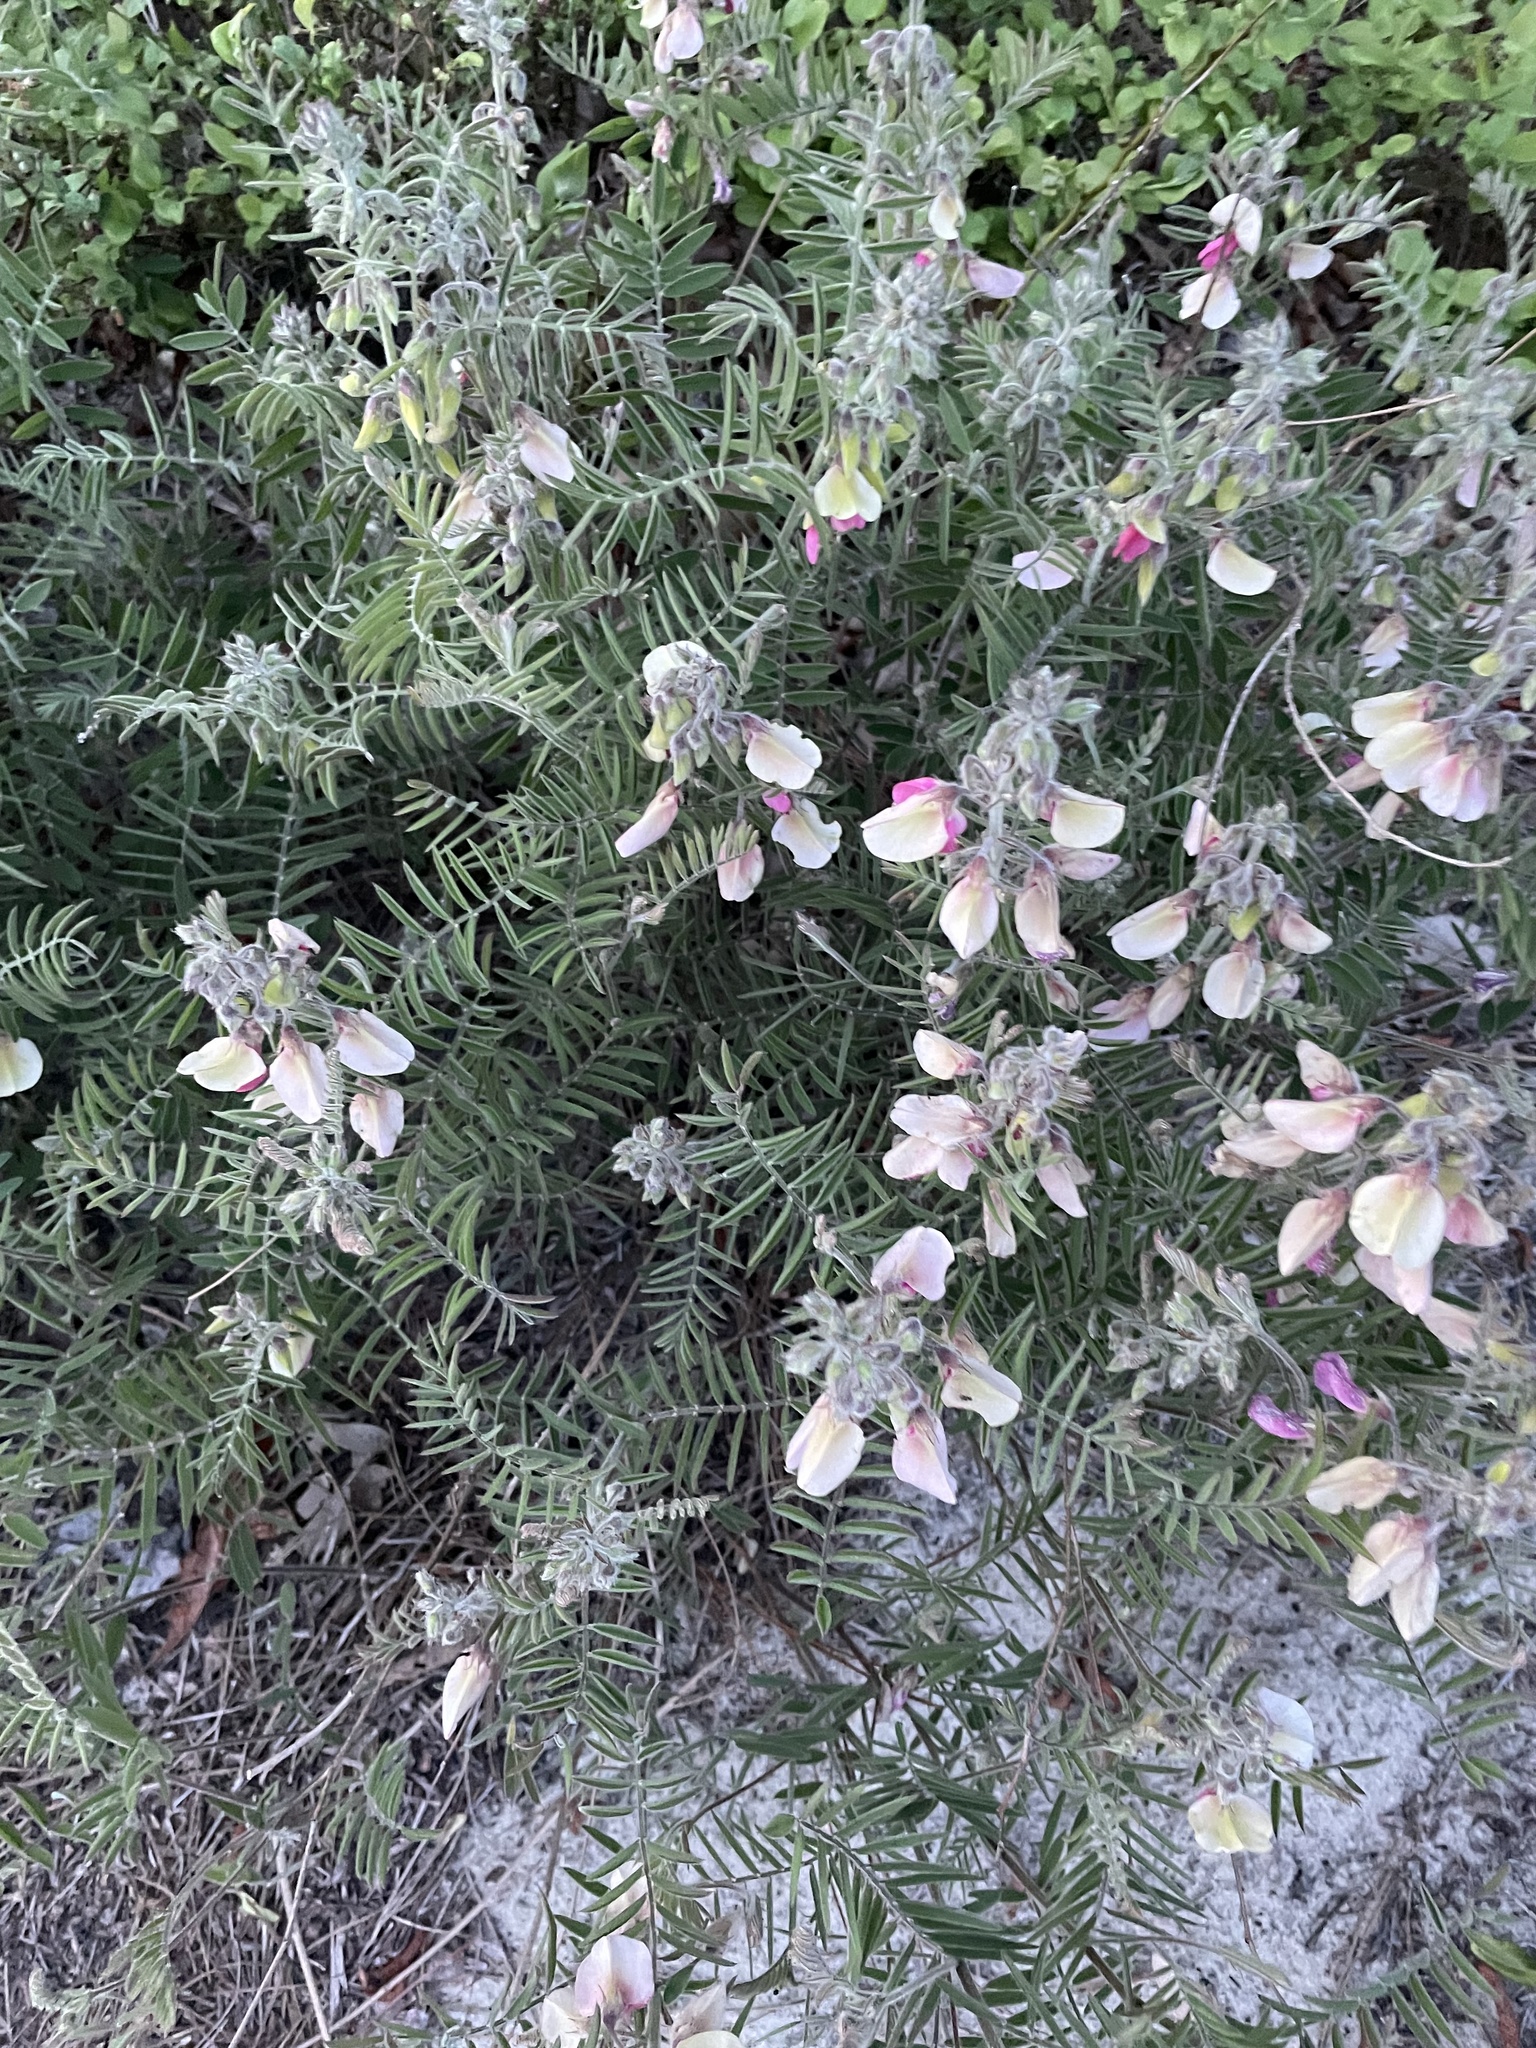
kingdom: Plantae
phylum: Tracheophyta
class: Magnoliopsida
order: Fabales
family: Fabaceae
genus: Tephrosia
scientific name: Tephrosia virginiana
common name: Rabbit-pea
